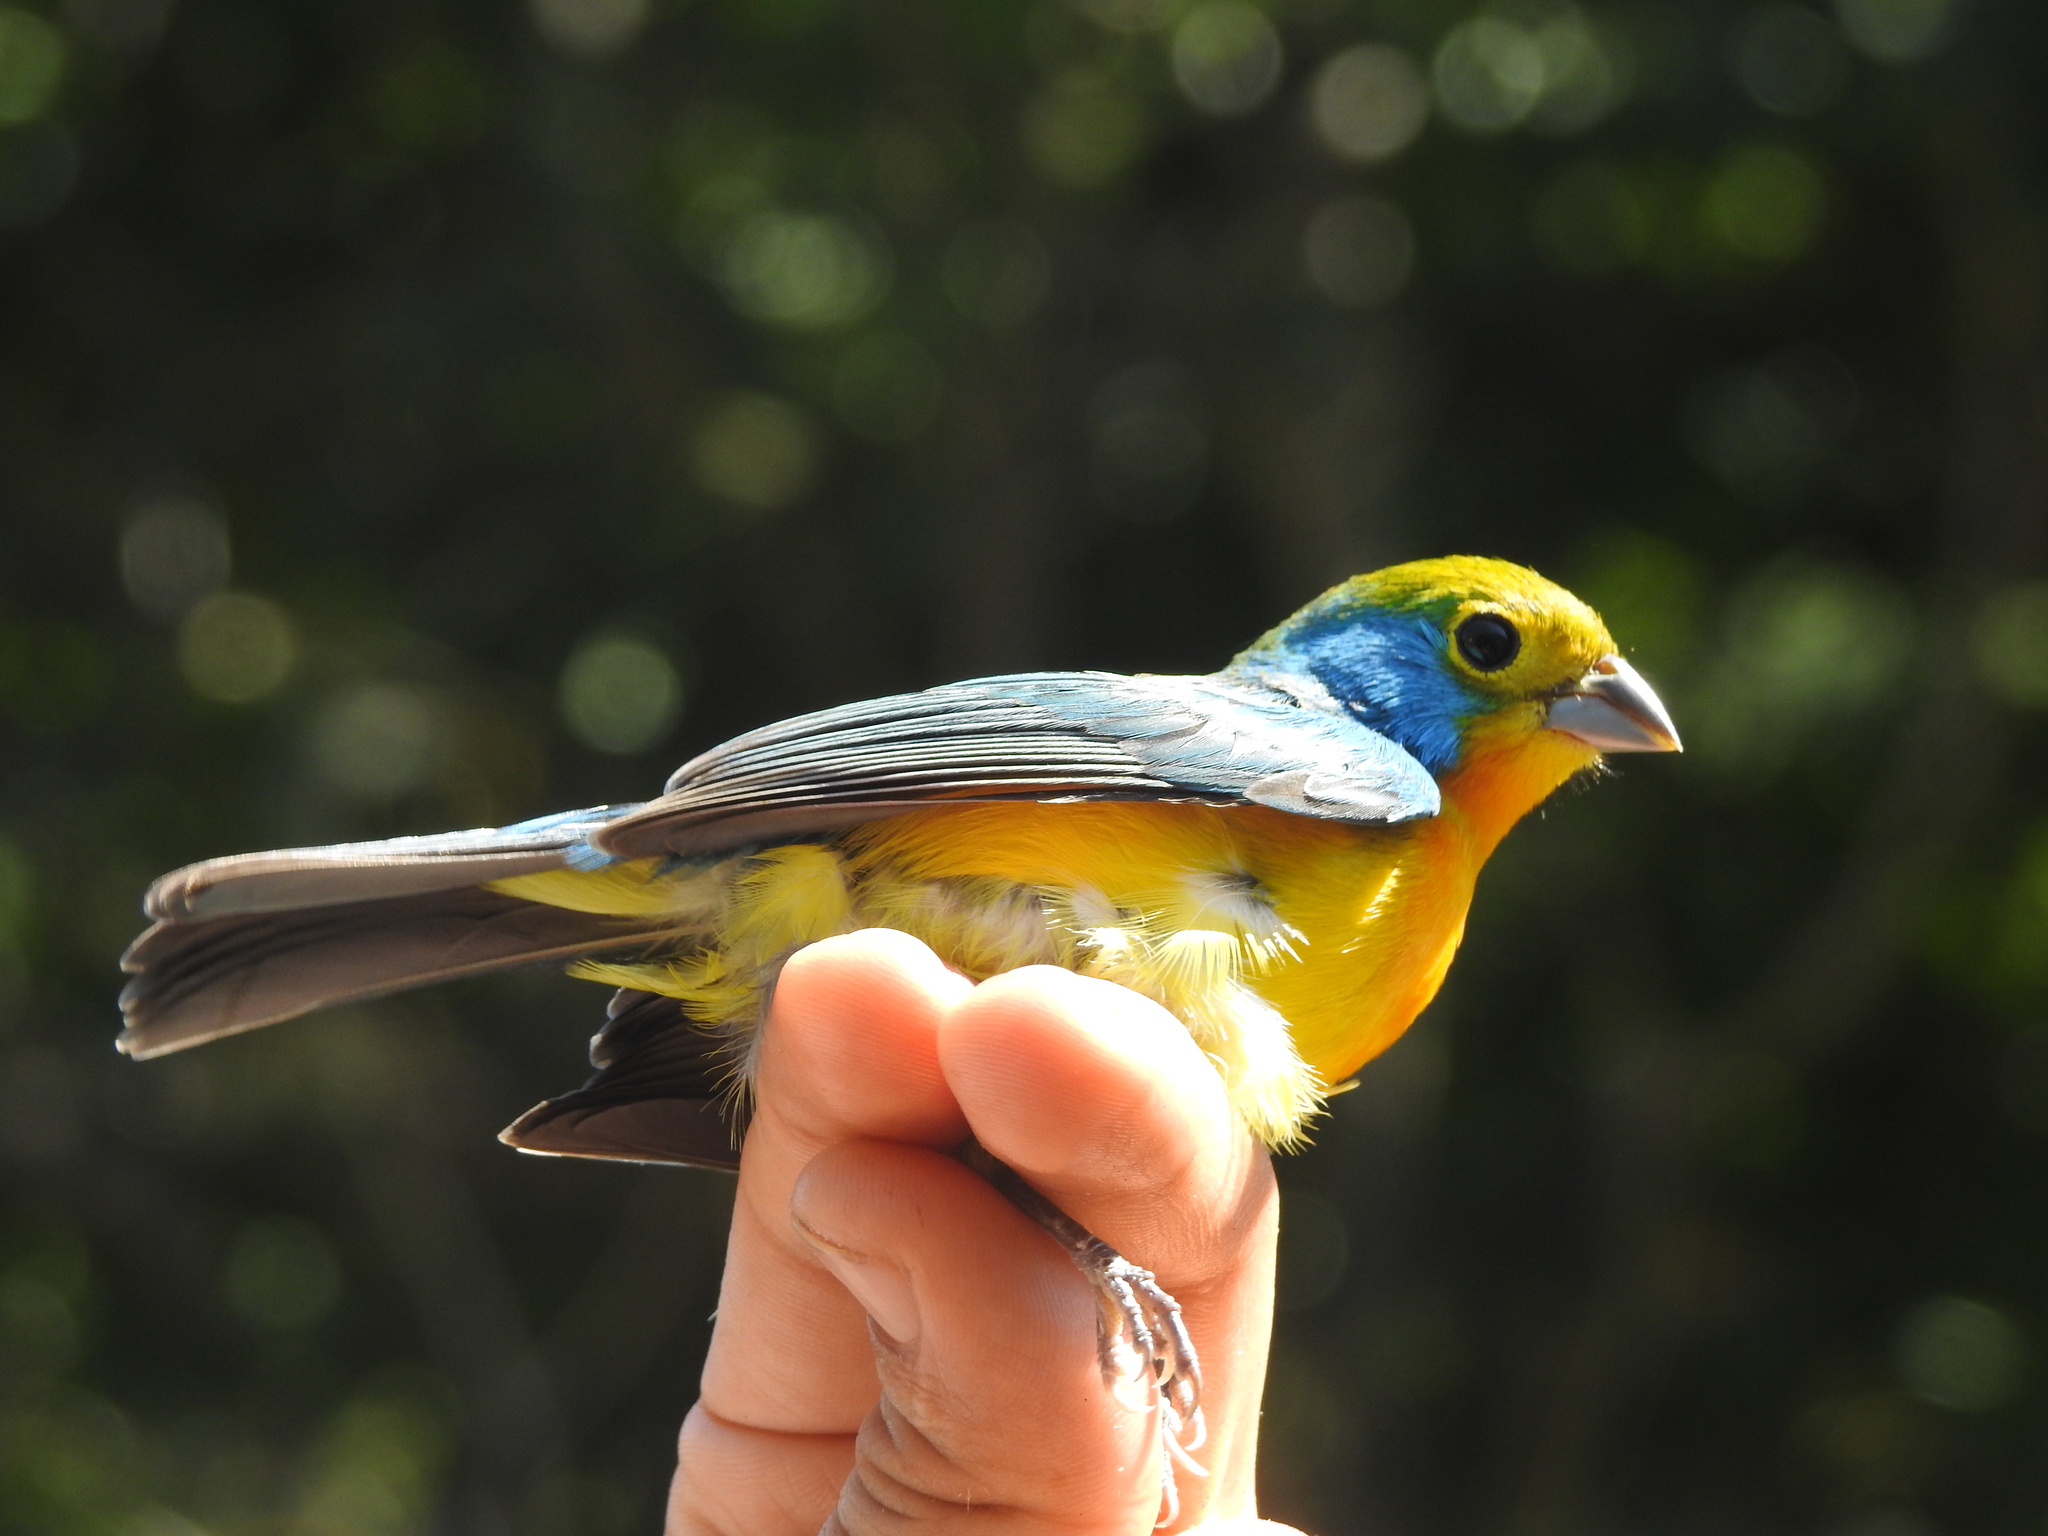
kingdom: Animalia
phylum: Chordata
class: Aves
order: Passeriformes
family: Cardinalidae
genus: Passerina
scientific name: Passerina leclancherii
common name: Orange-breasted bunting
